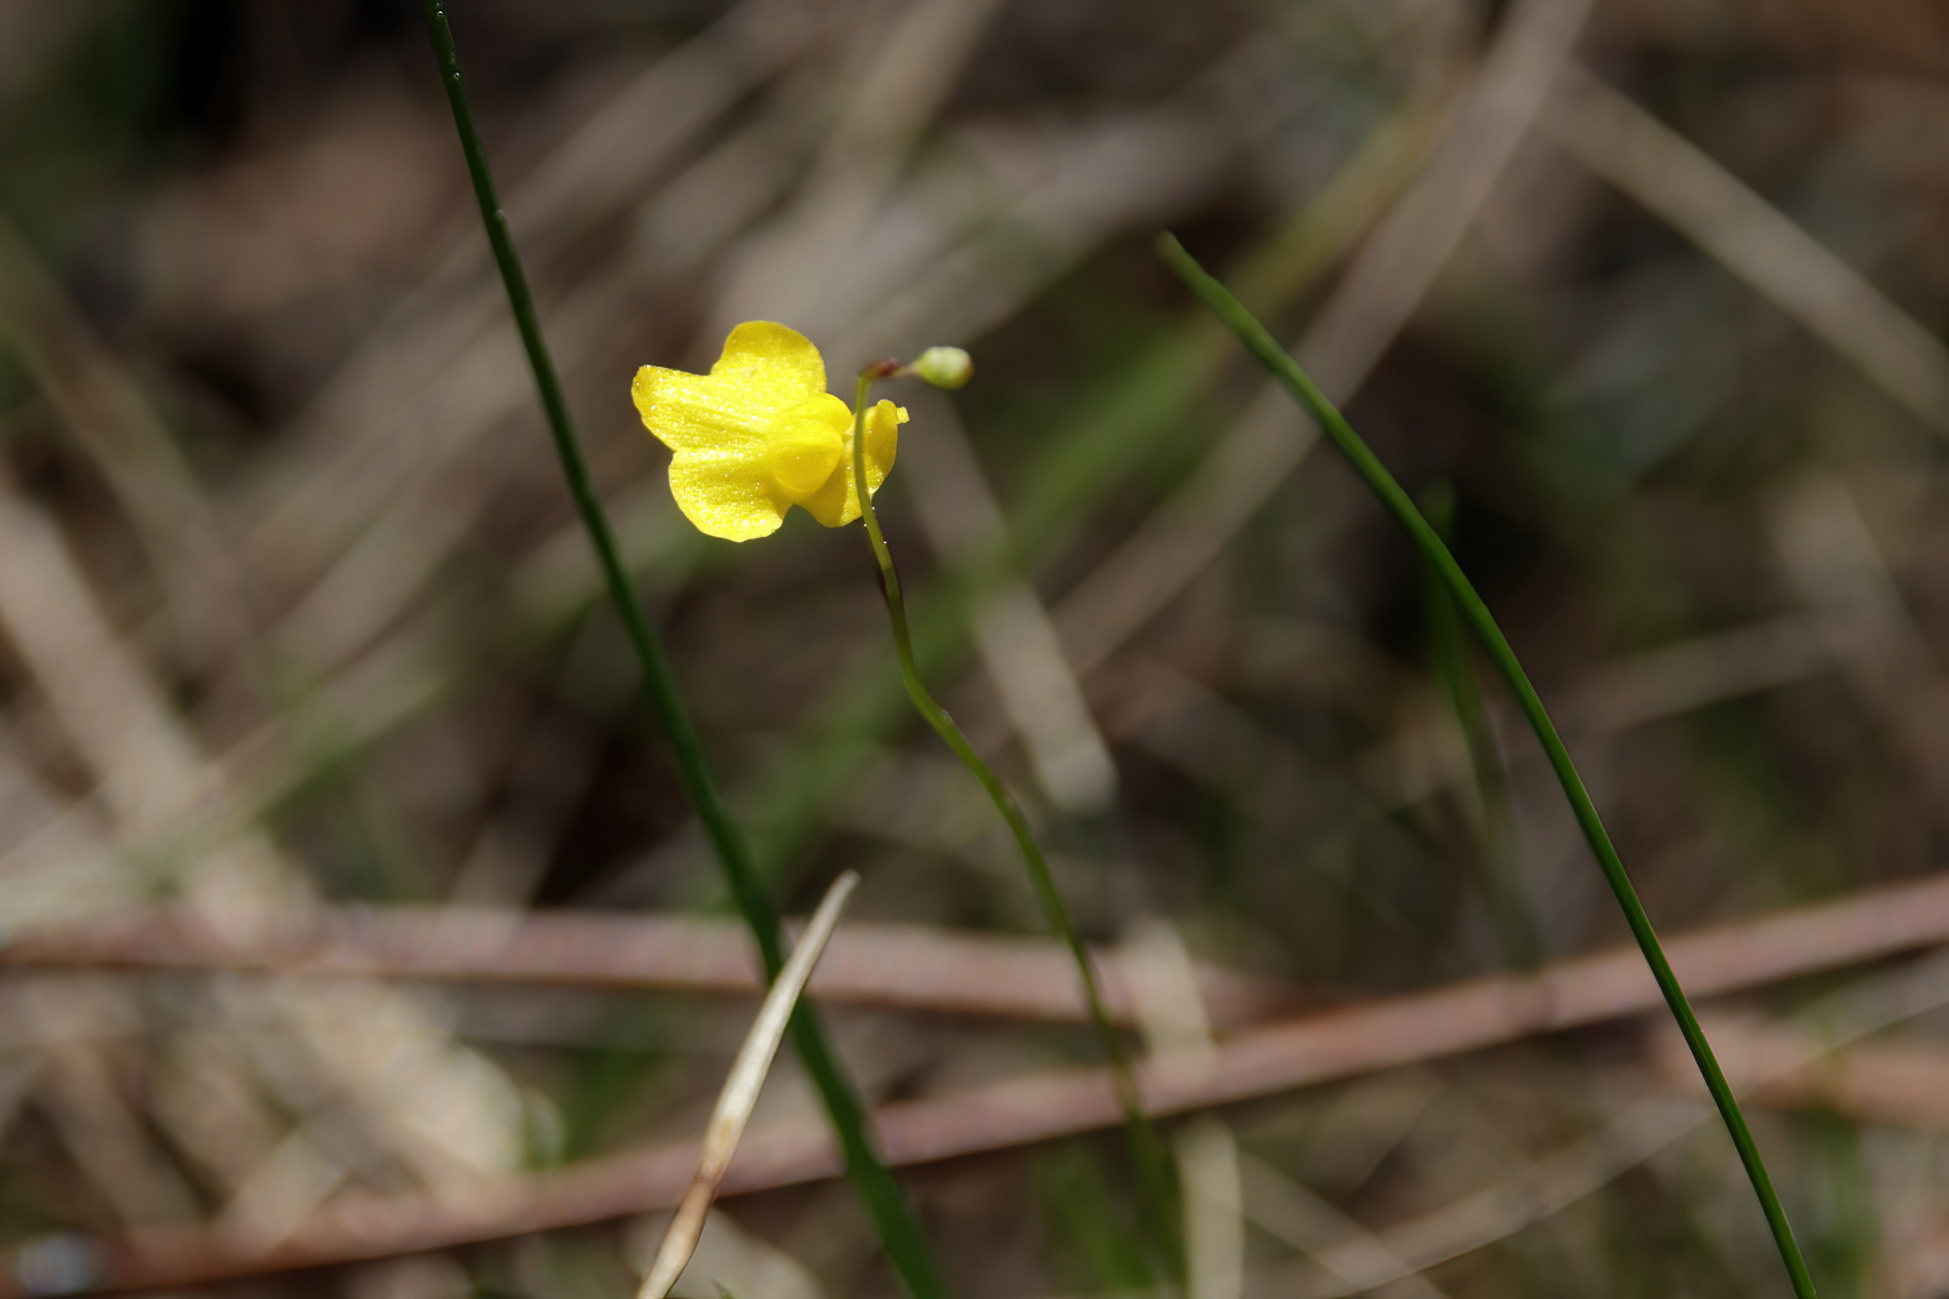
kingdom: Plantae
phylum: Tracheophyta
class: Magnoliopsida
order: Lamiales
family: Lentibulariaceae
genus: Utricularia
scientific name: Utricularia subulata
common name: Tiny bladderwort
